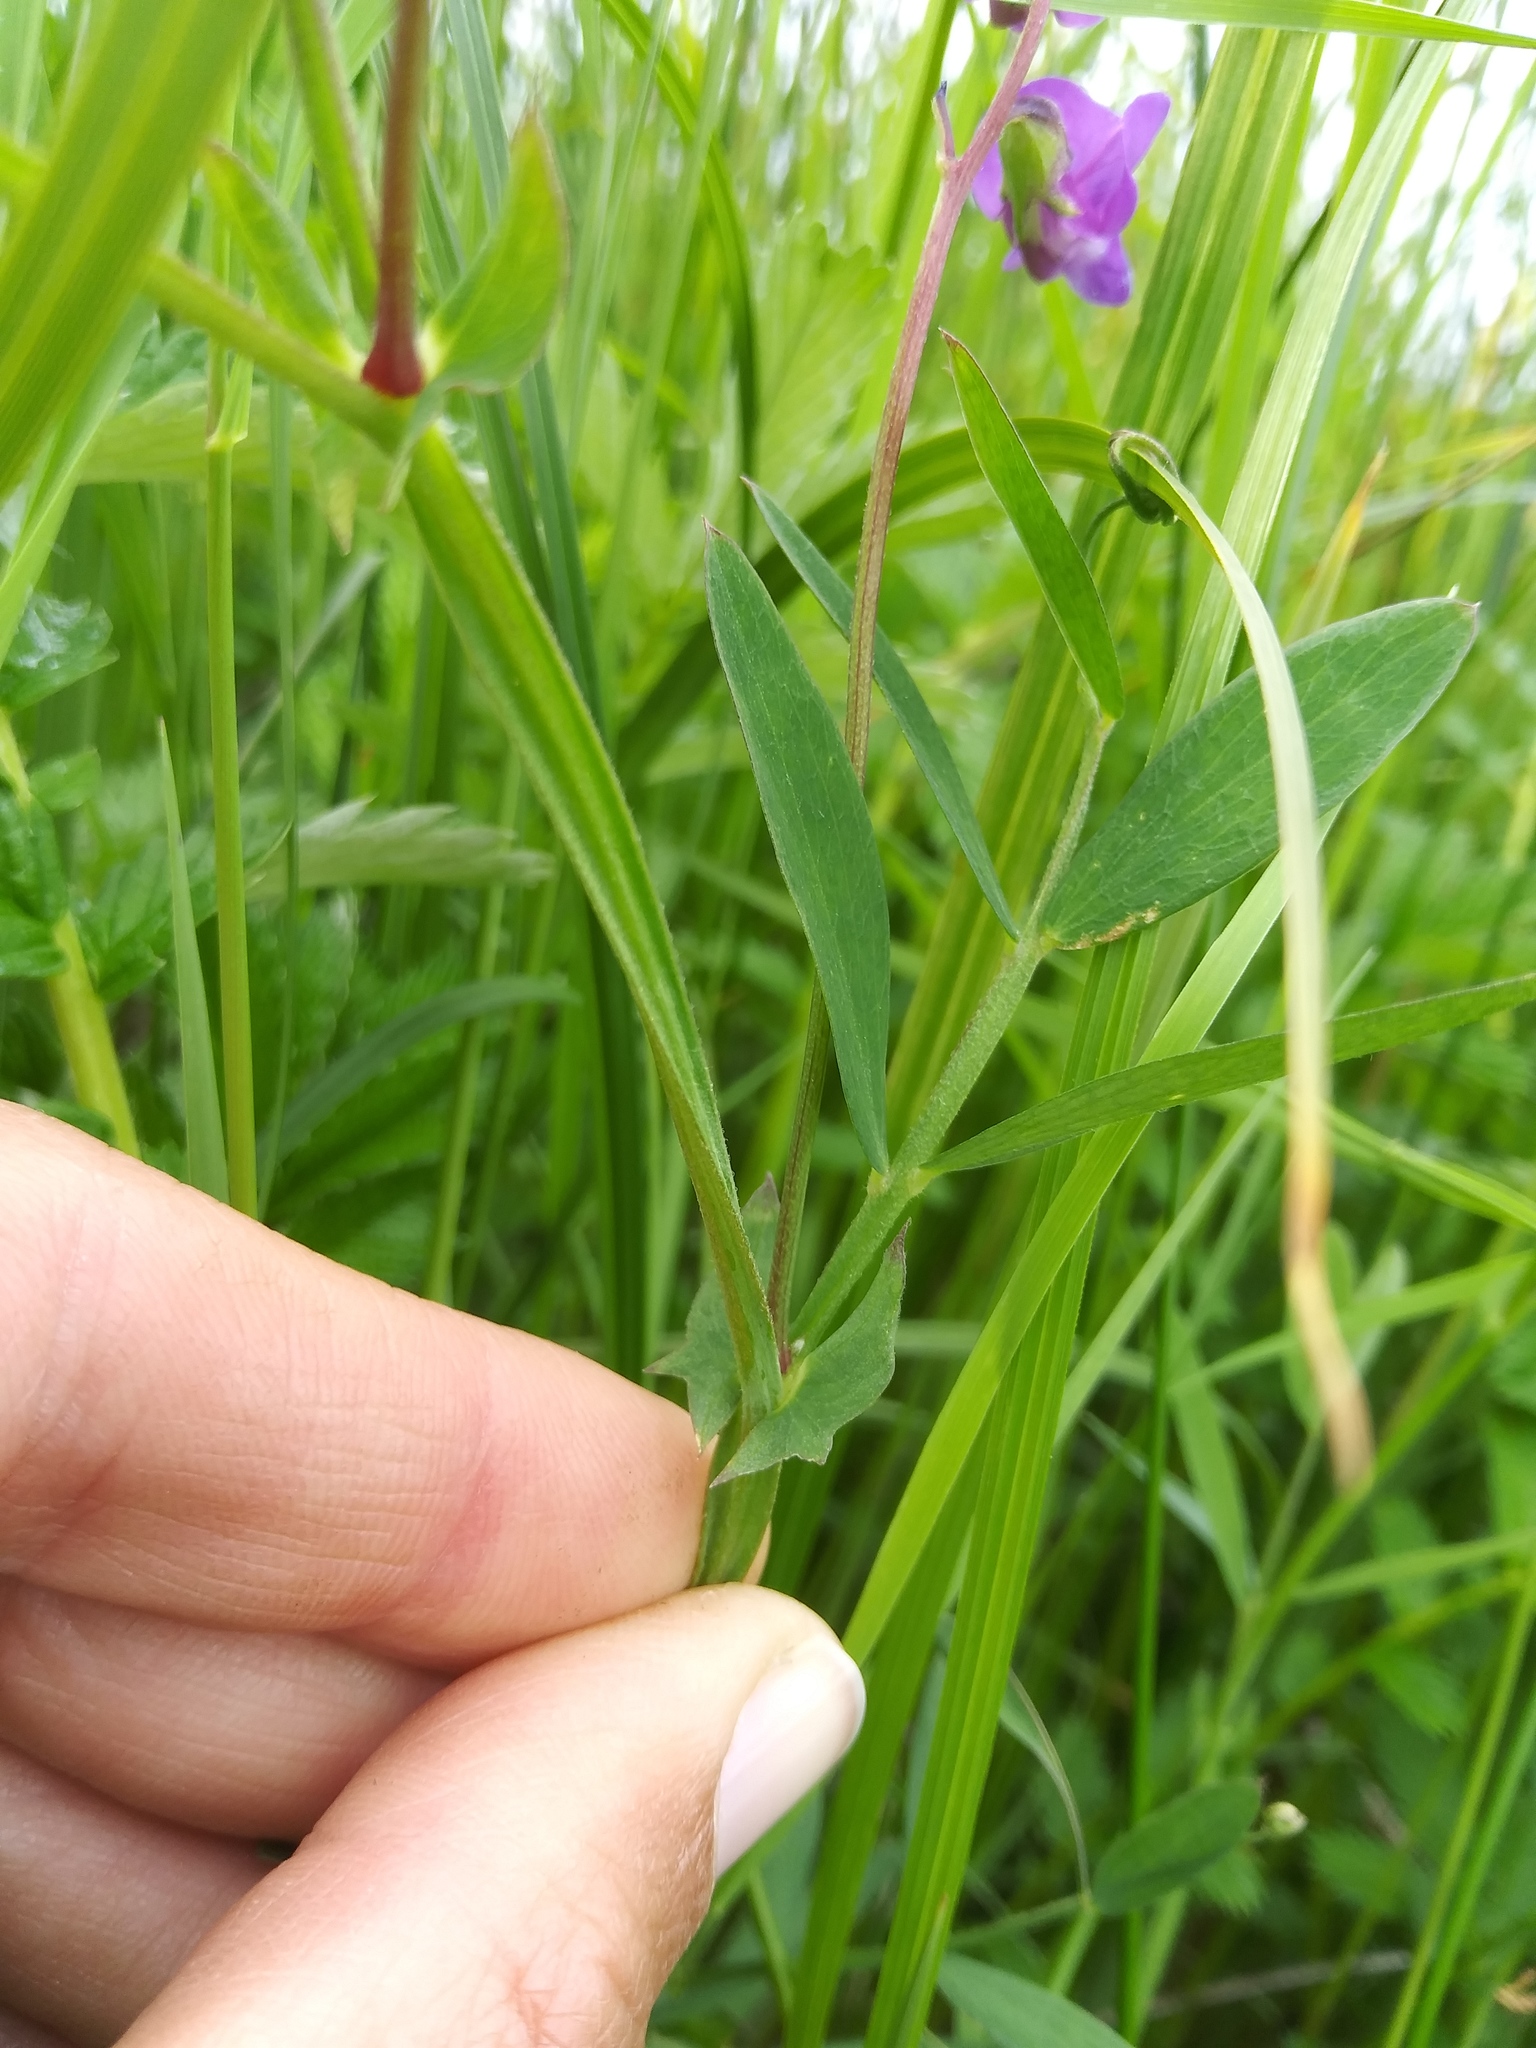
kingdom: Plantae
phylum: Tracheophyta
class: Magnoliopsida
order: Fabales
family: Fabaceae
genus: Lathyrus
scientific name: Lathyrus palustris
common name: Marsh pea
